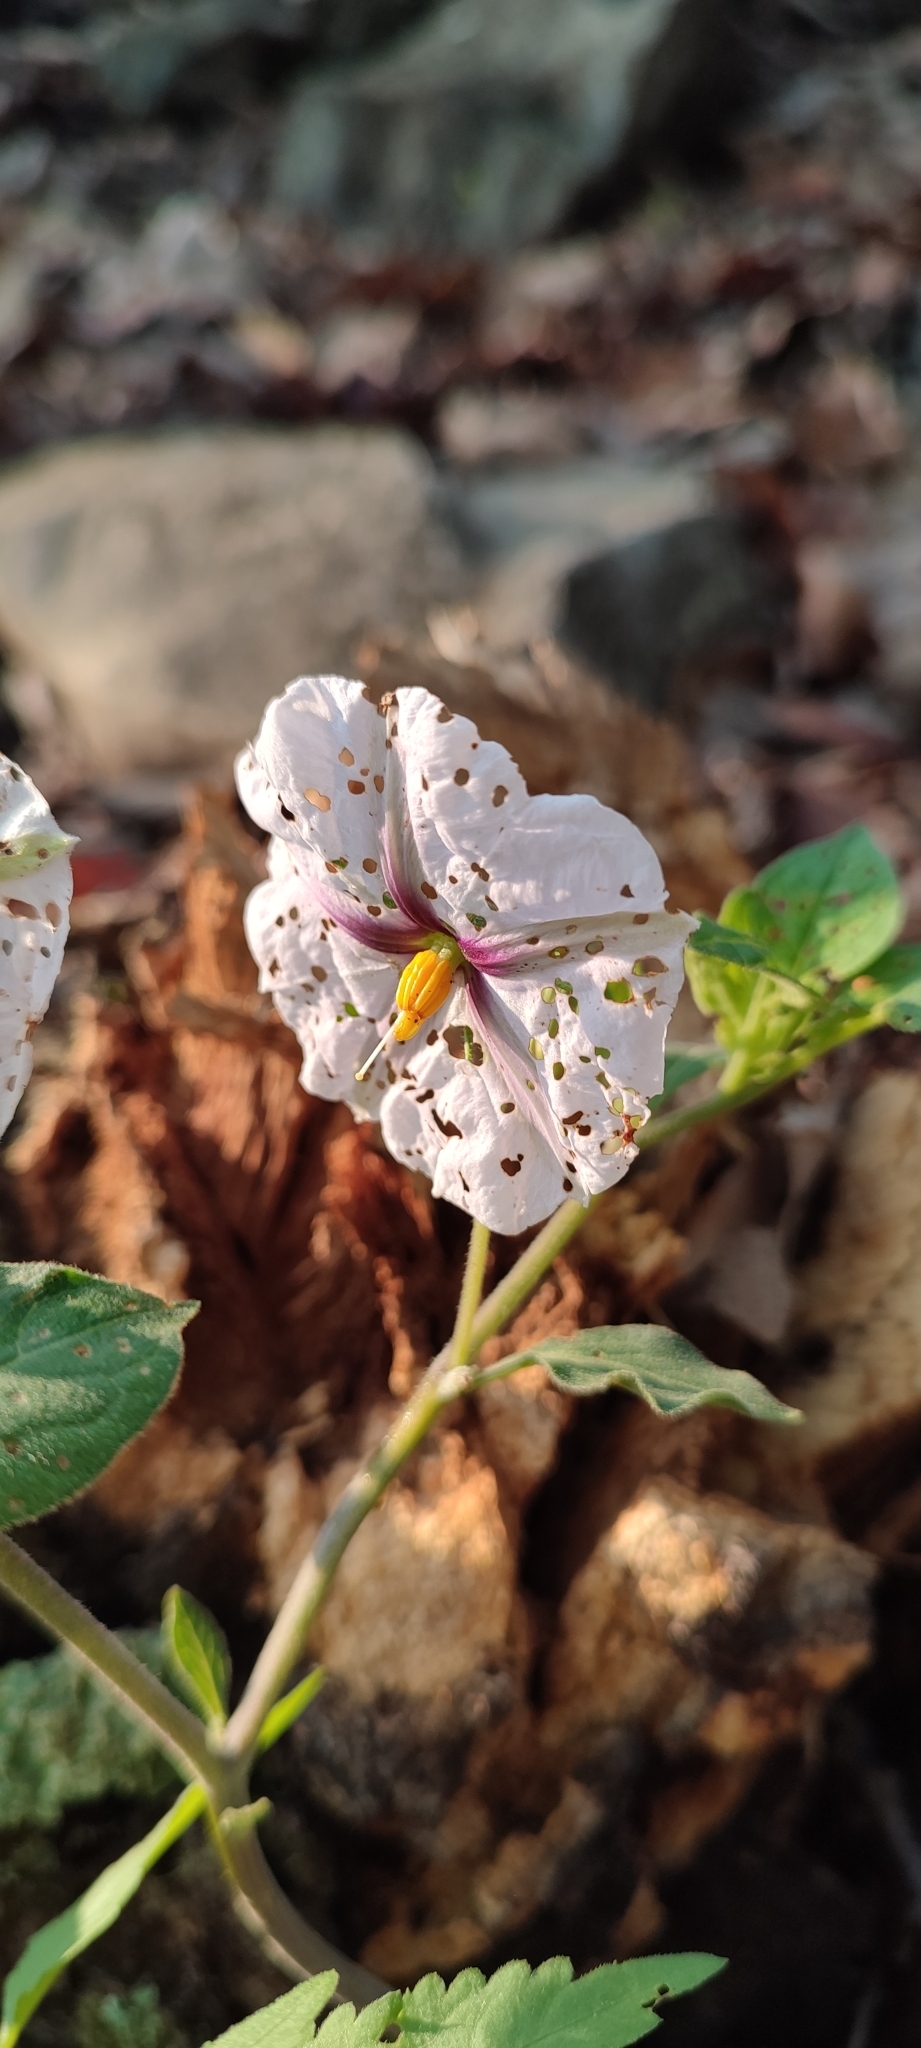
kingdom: Plantae
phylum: Tracheophyta
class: Magnoliopsida
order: Solanales
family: Solanaceae
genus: Lycianthes
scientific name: Lycianthes ciliolata
